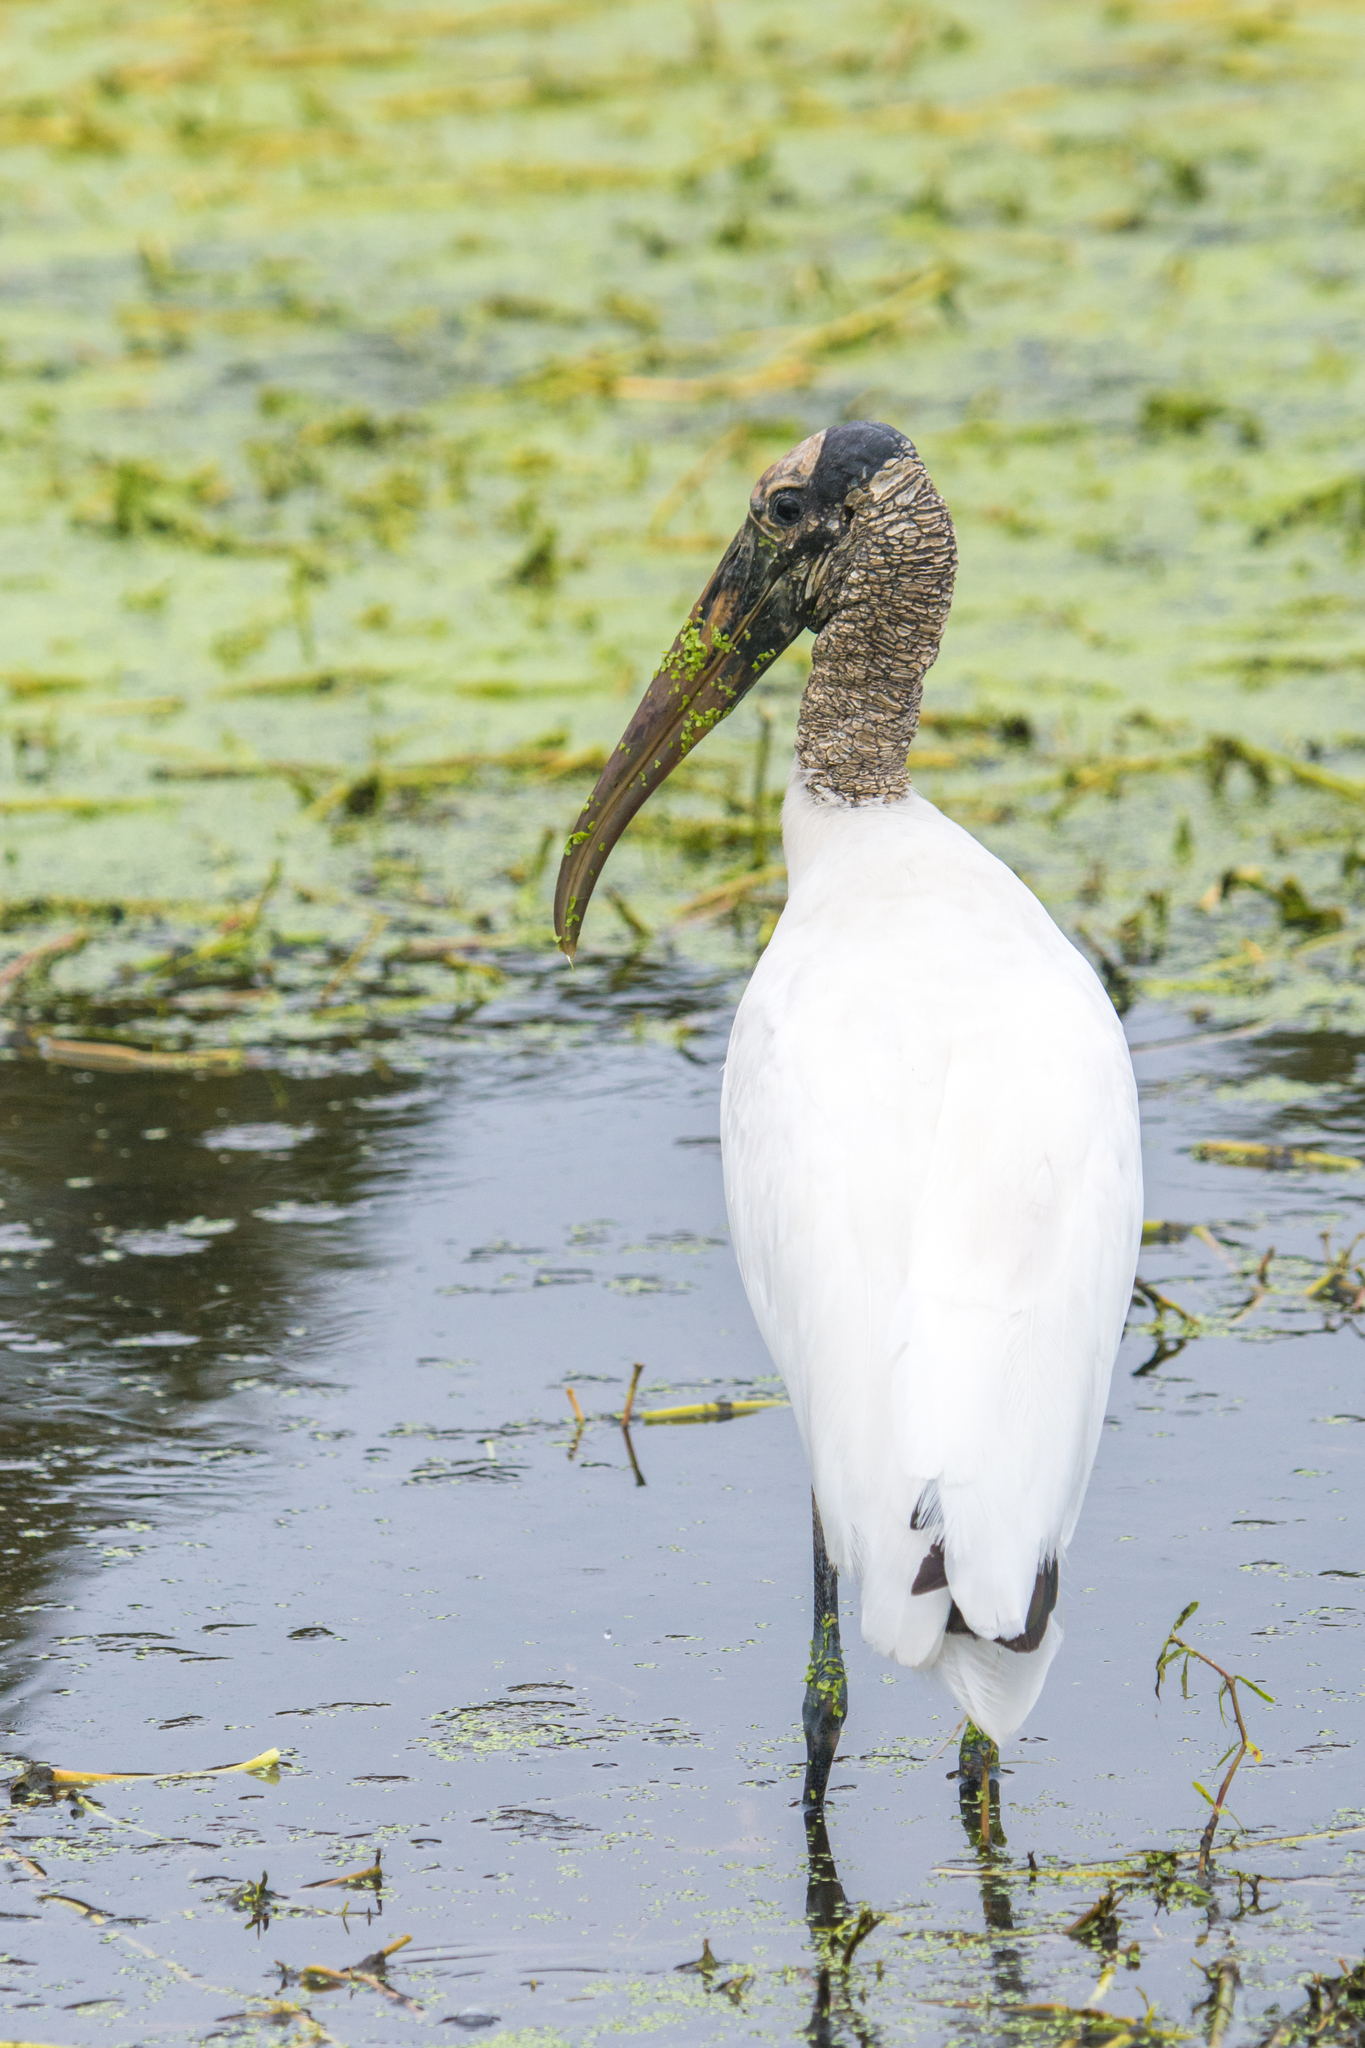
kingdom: Animalia
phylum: Chordata
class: Aves
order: Ciconiiformes
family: Ciconiidae
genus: Mycteria
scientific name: Mycteria americana
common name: Wood stork
